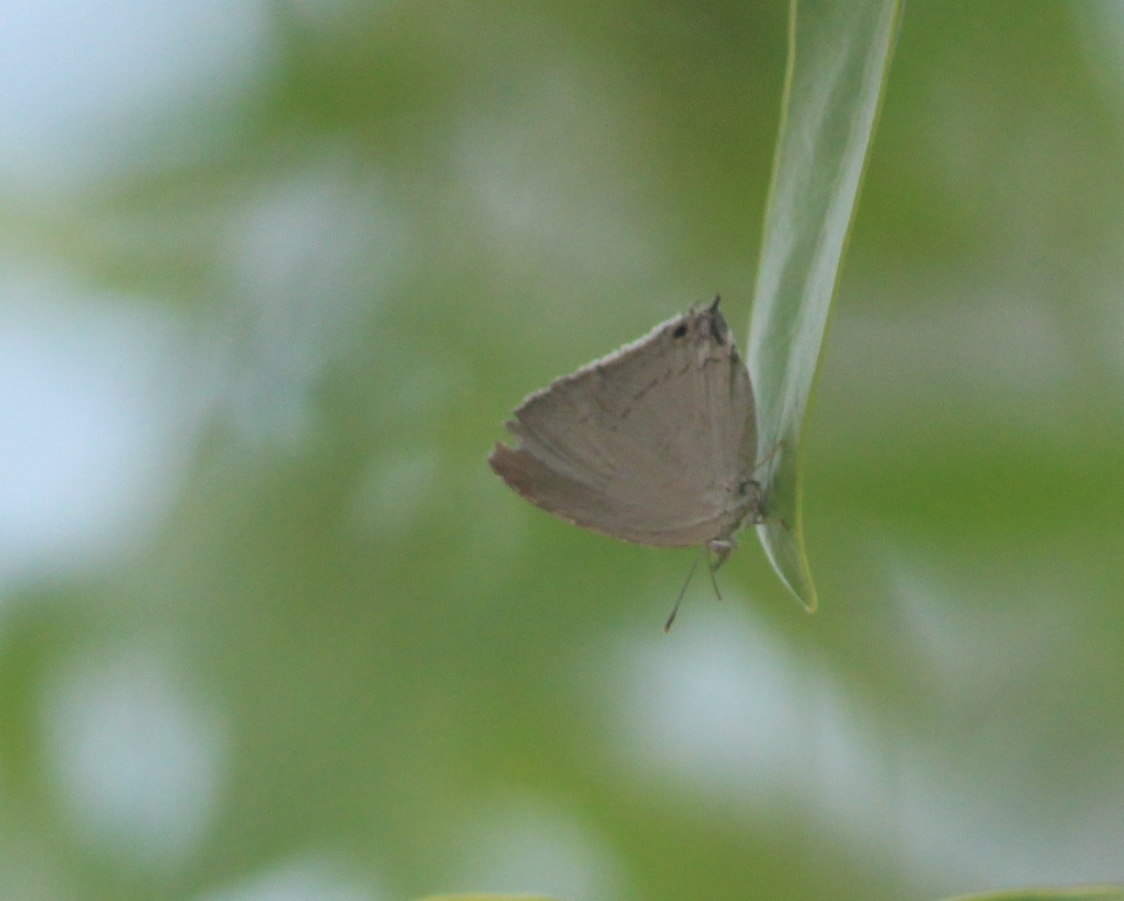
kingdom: Animalia
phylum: Arthropoda
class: Insecta
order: Lepidoptera
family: Lycaenidae
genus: Tajuria
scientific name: Tajuria jehana
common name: Plains blue royal
